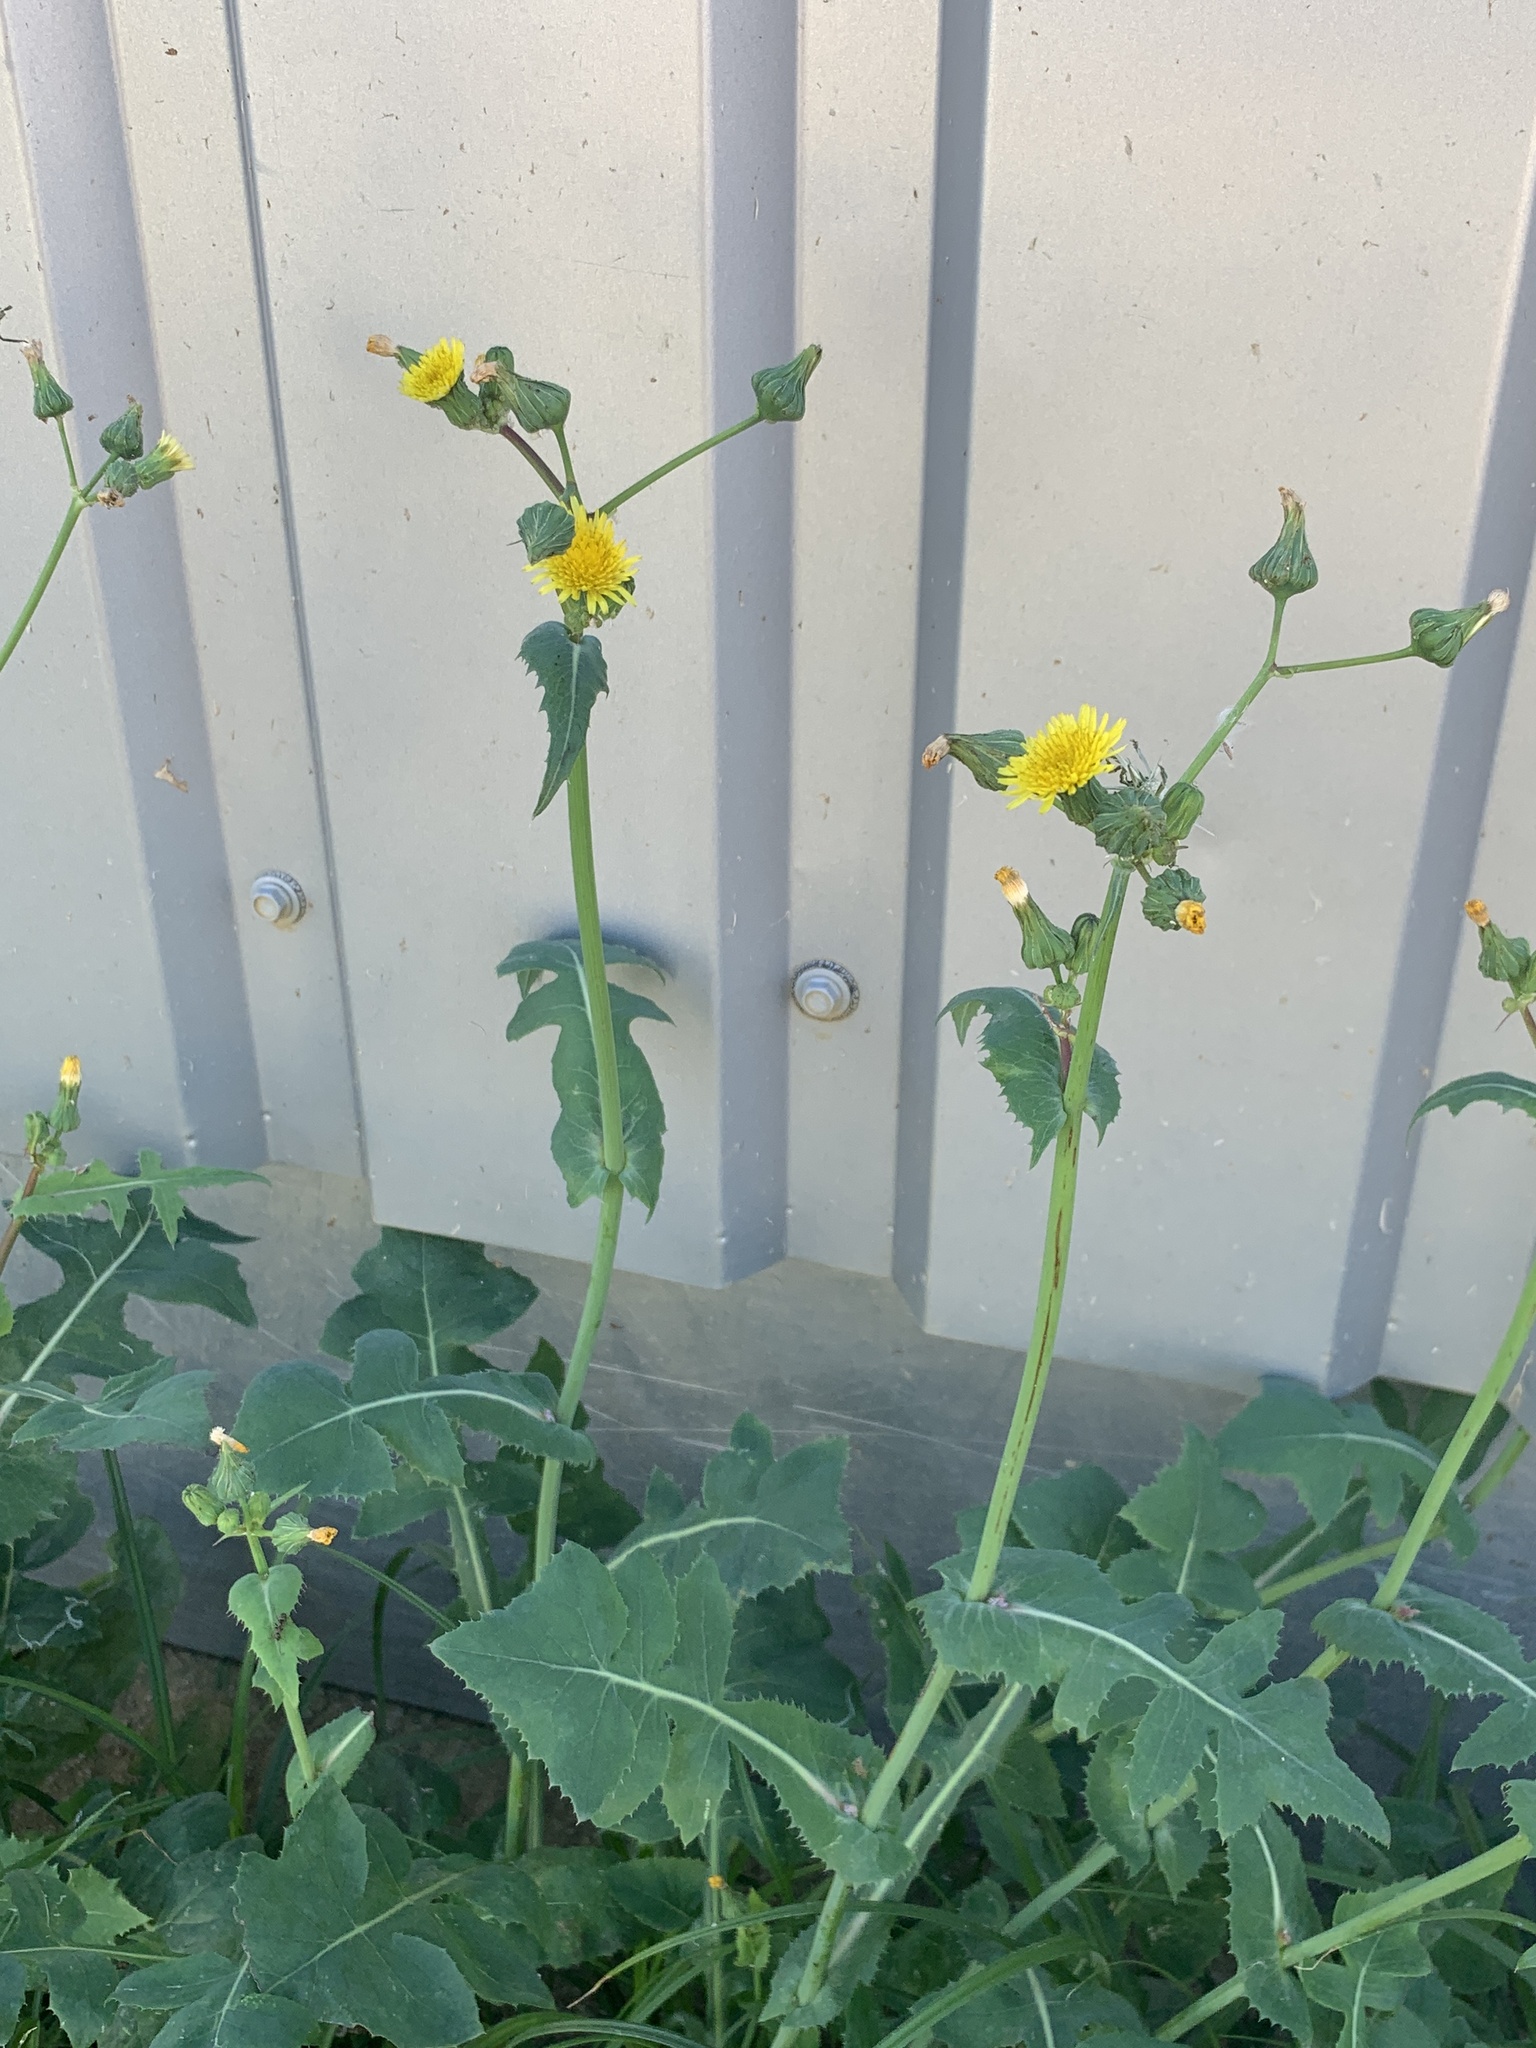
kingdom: Plantae
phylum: Tracheophyta
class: Magnoliopsida
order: Asterales
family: Asteraceae
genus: Sonchus
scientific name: Sonchus oleraceus
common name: Common sowthistle
